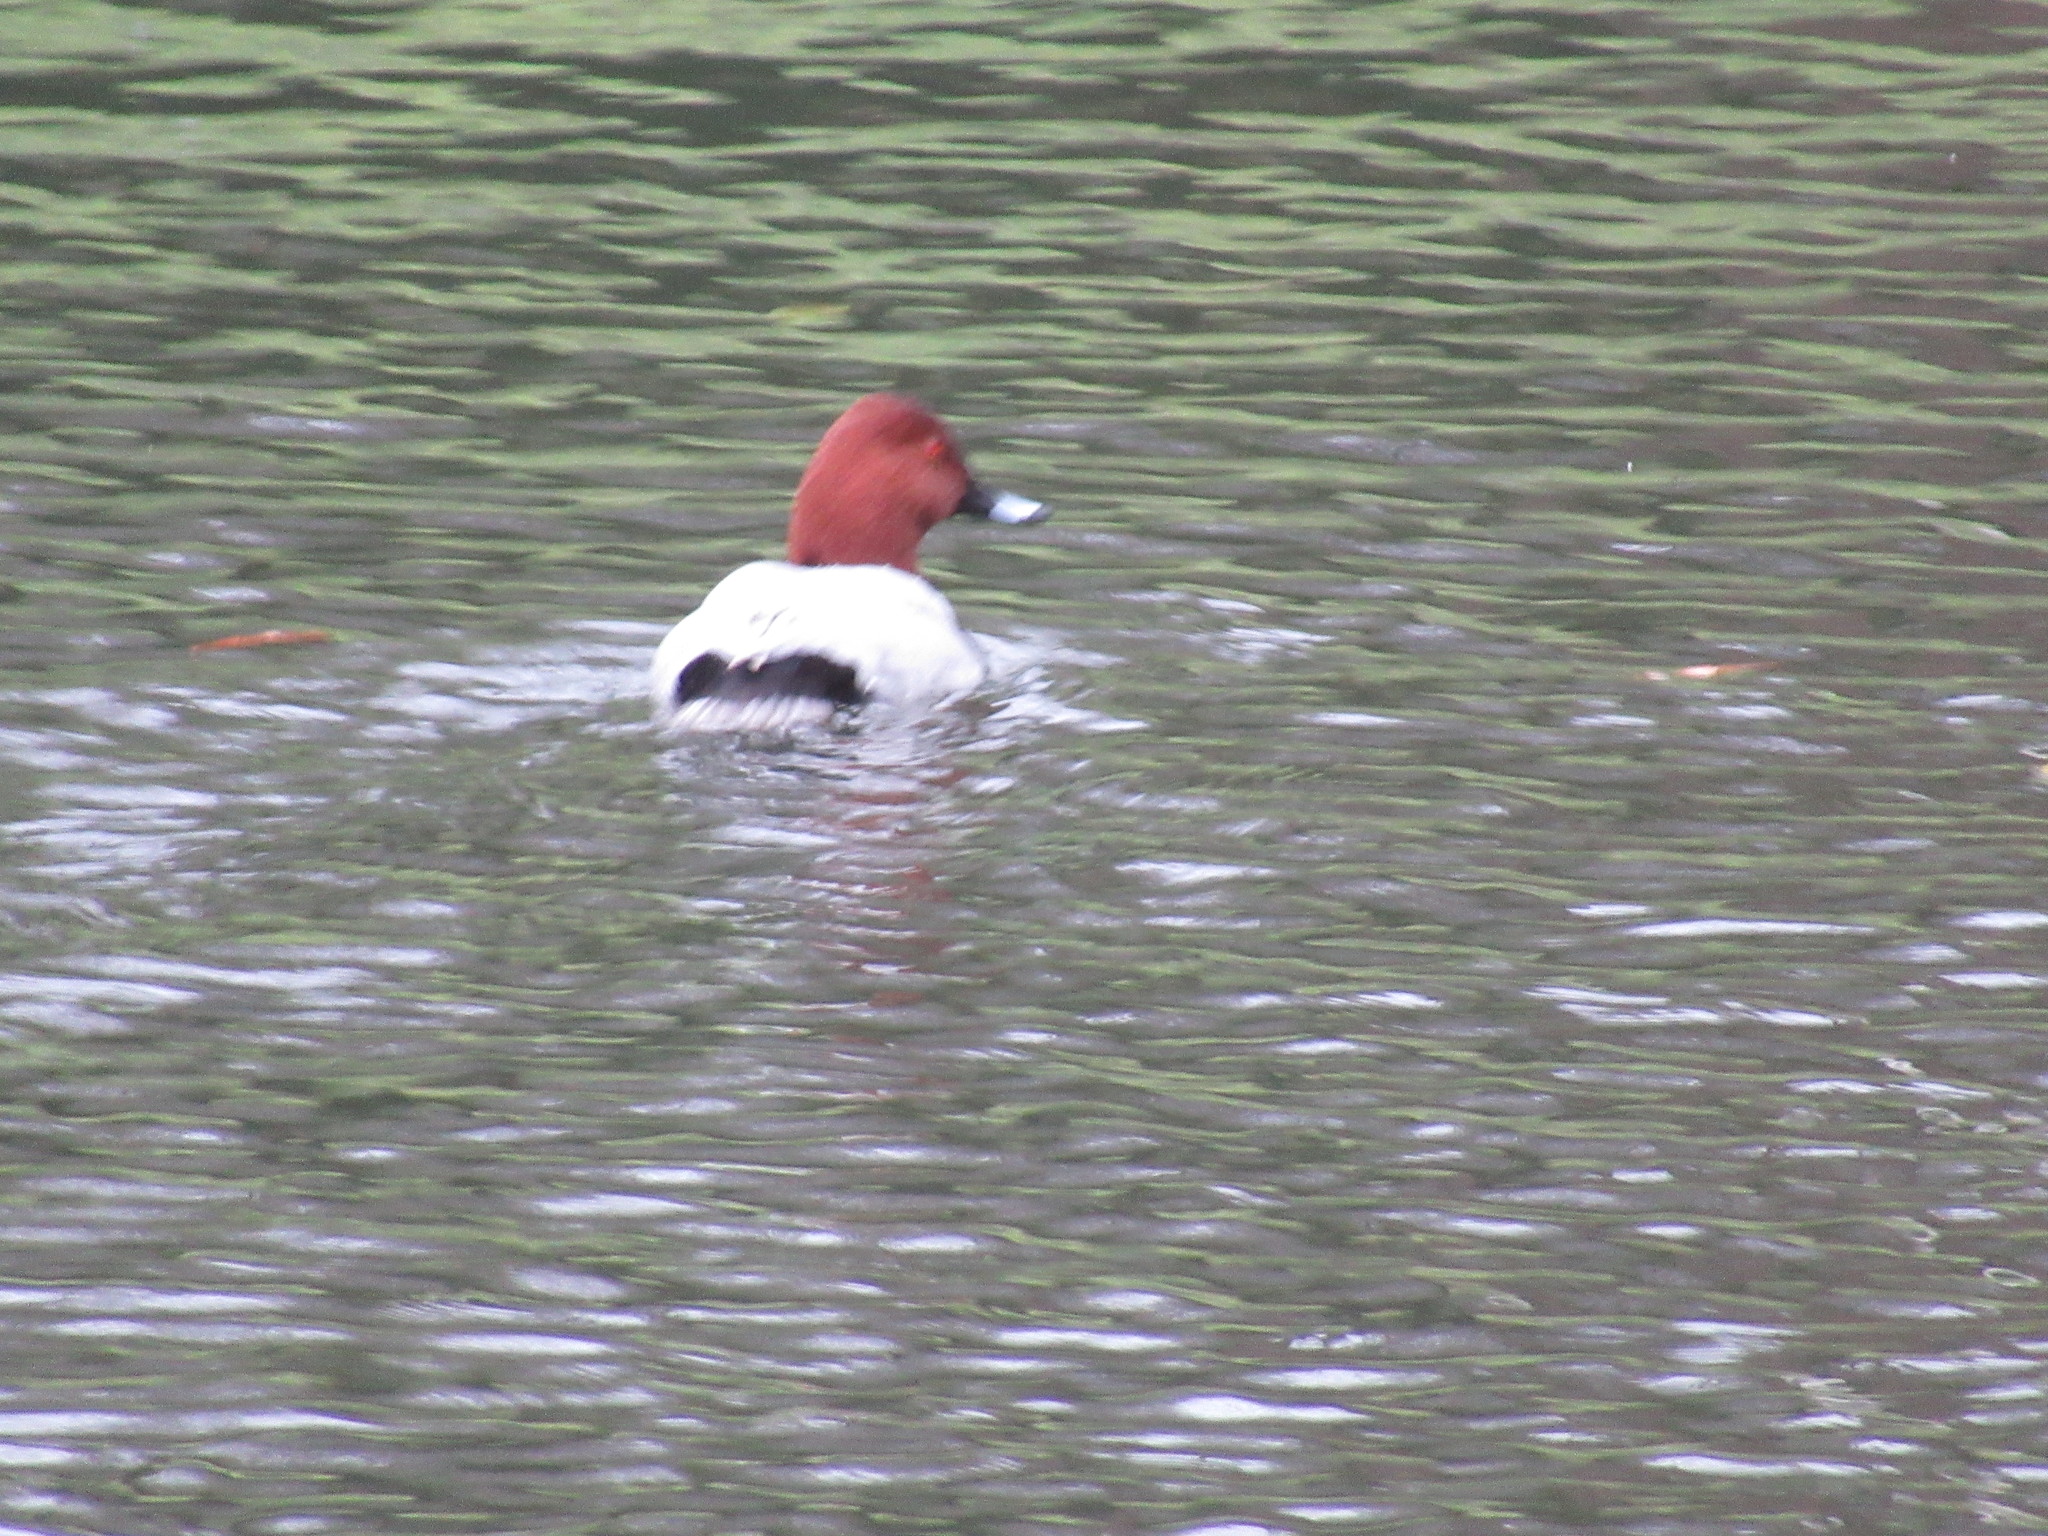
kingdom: Animalia
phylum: Chordata
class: Aves
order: Anseriformes
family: Anatidae
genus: Aythya
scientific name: Aythya ferina
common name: Common pochard
